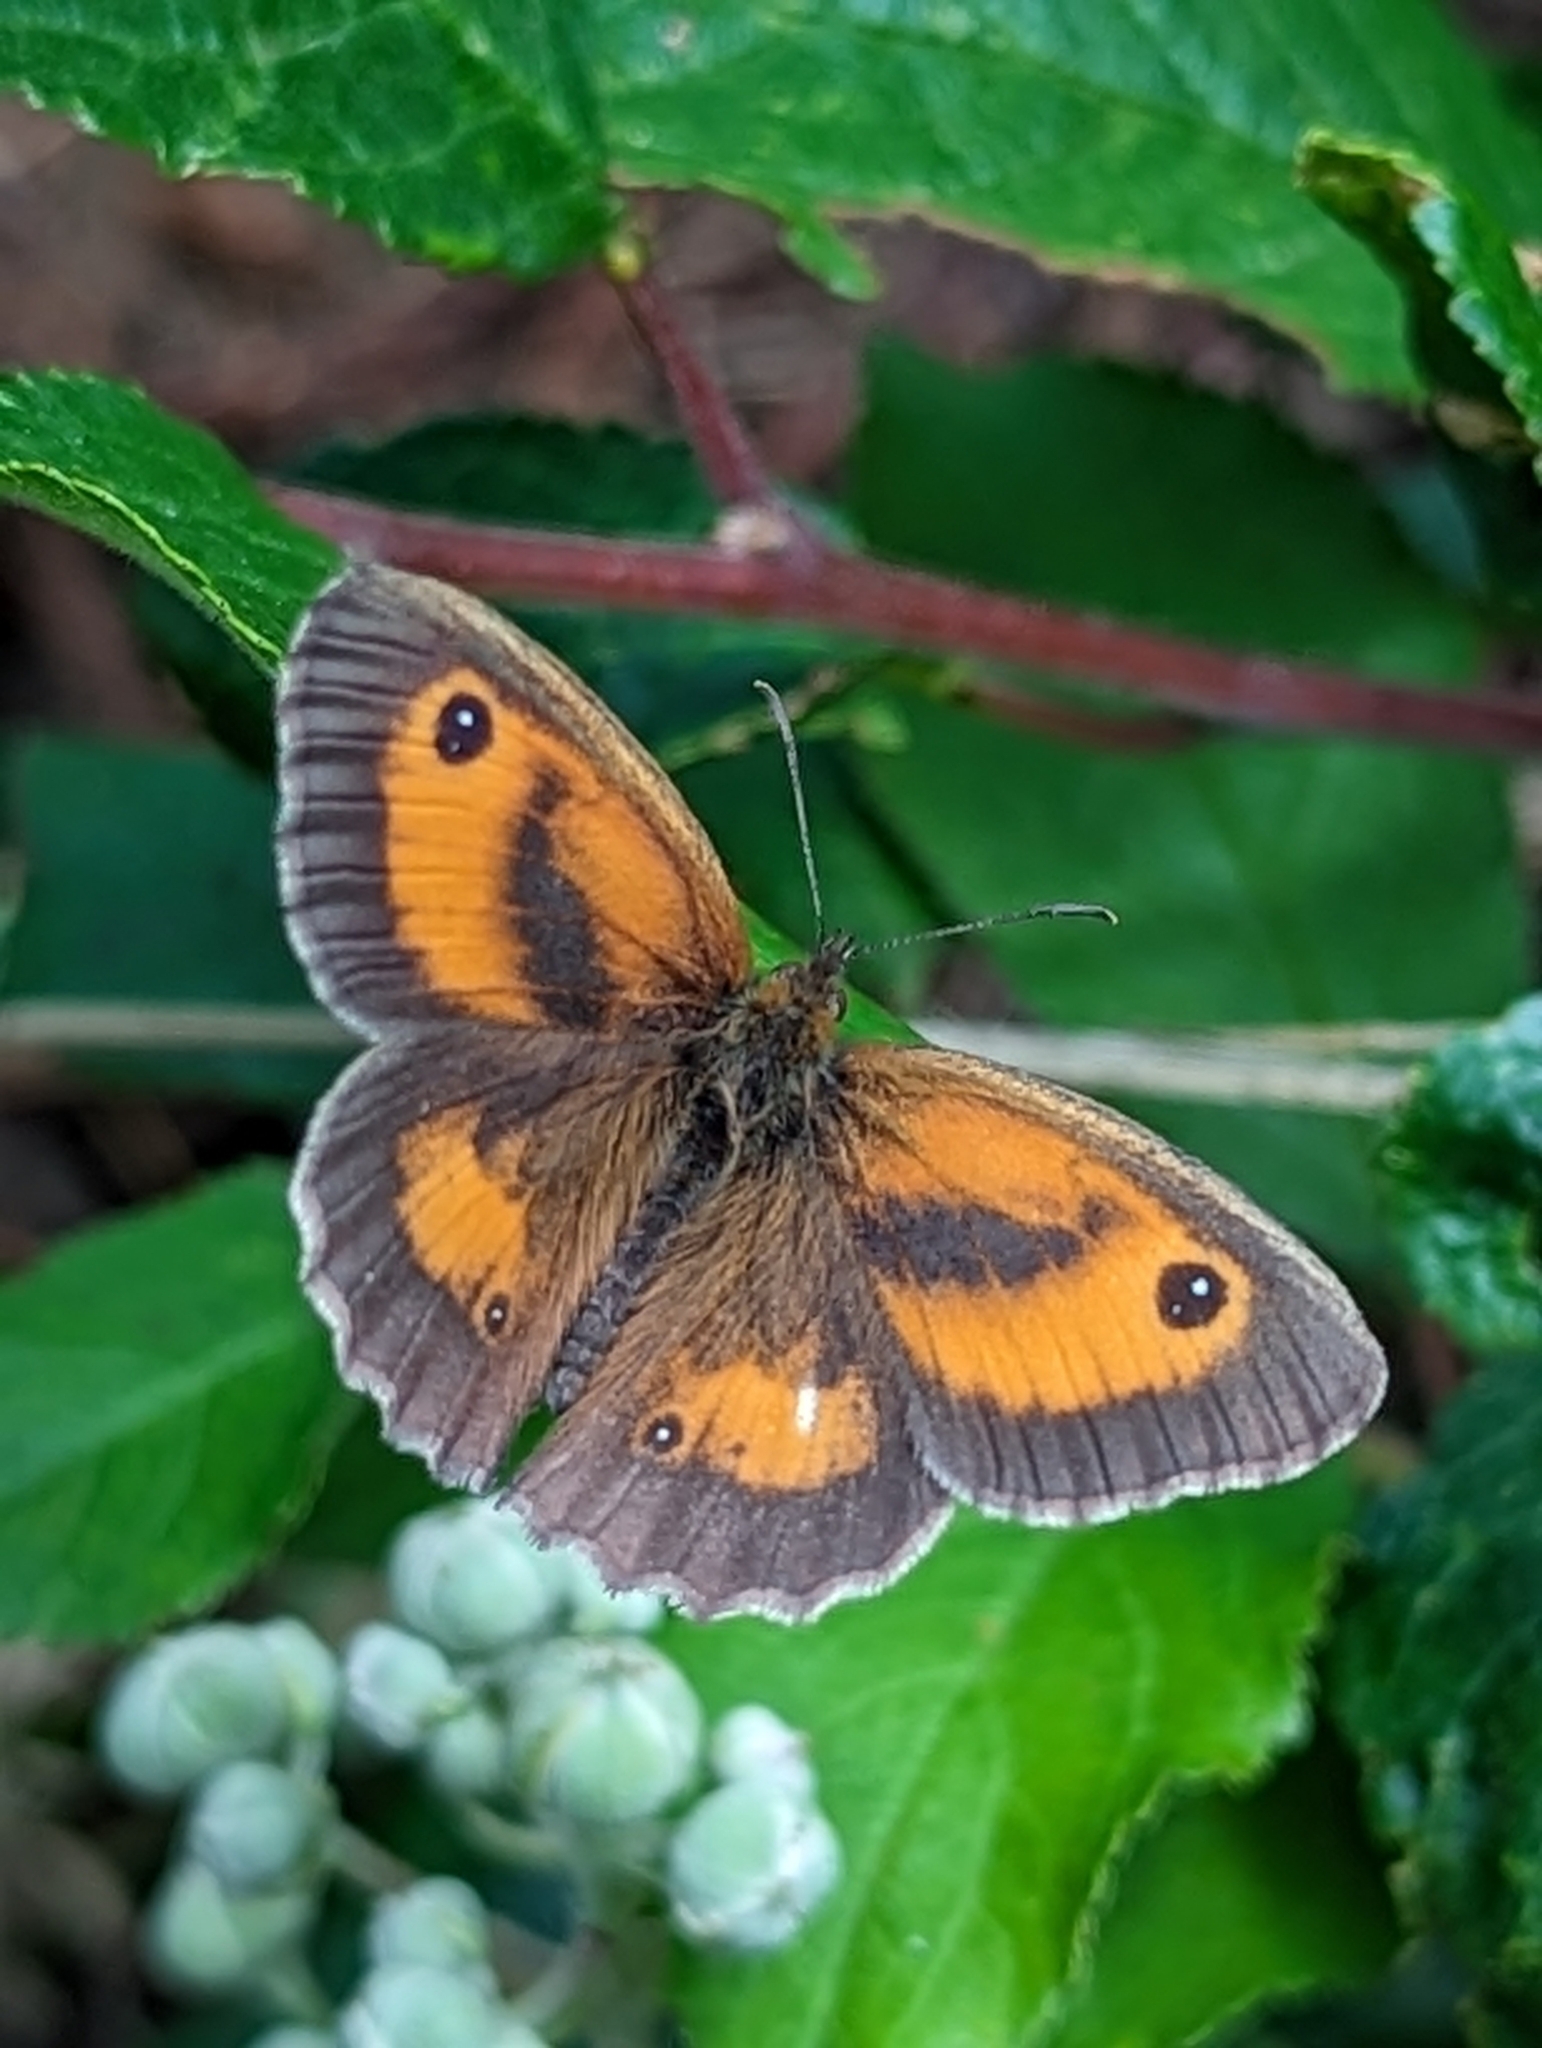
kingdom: Animalia
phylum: Arthropoda
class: Insecta
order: Lepidoptera
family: Nymphalidae
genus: Pyronia
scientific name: Pyronia tithonus
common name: Gatekeeper
